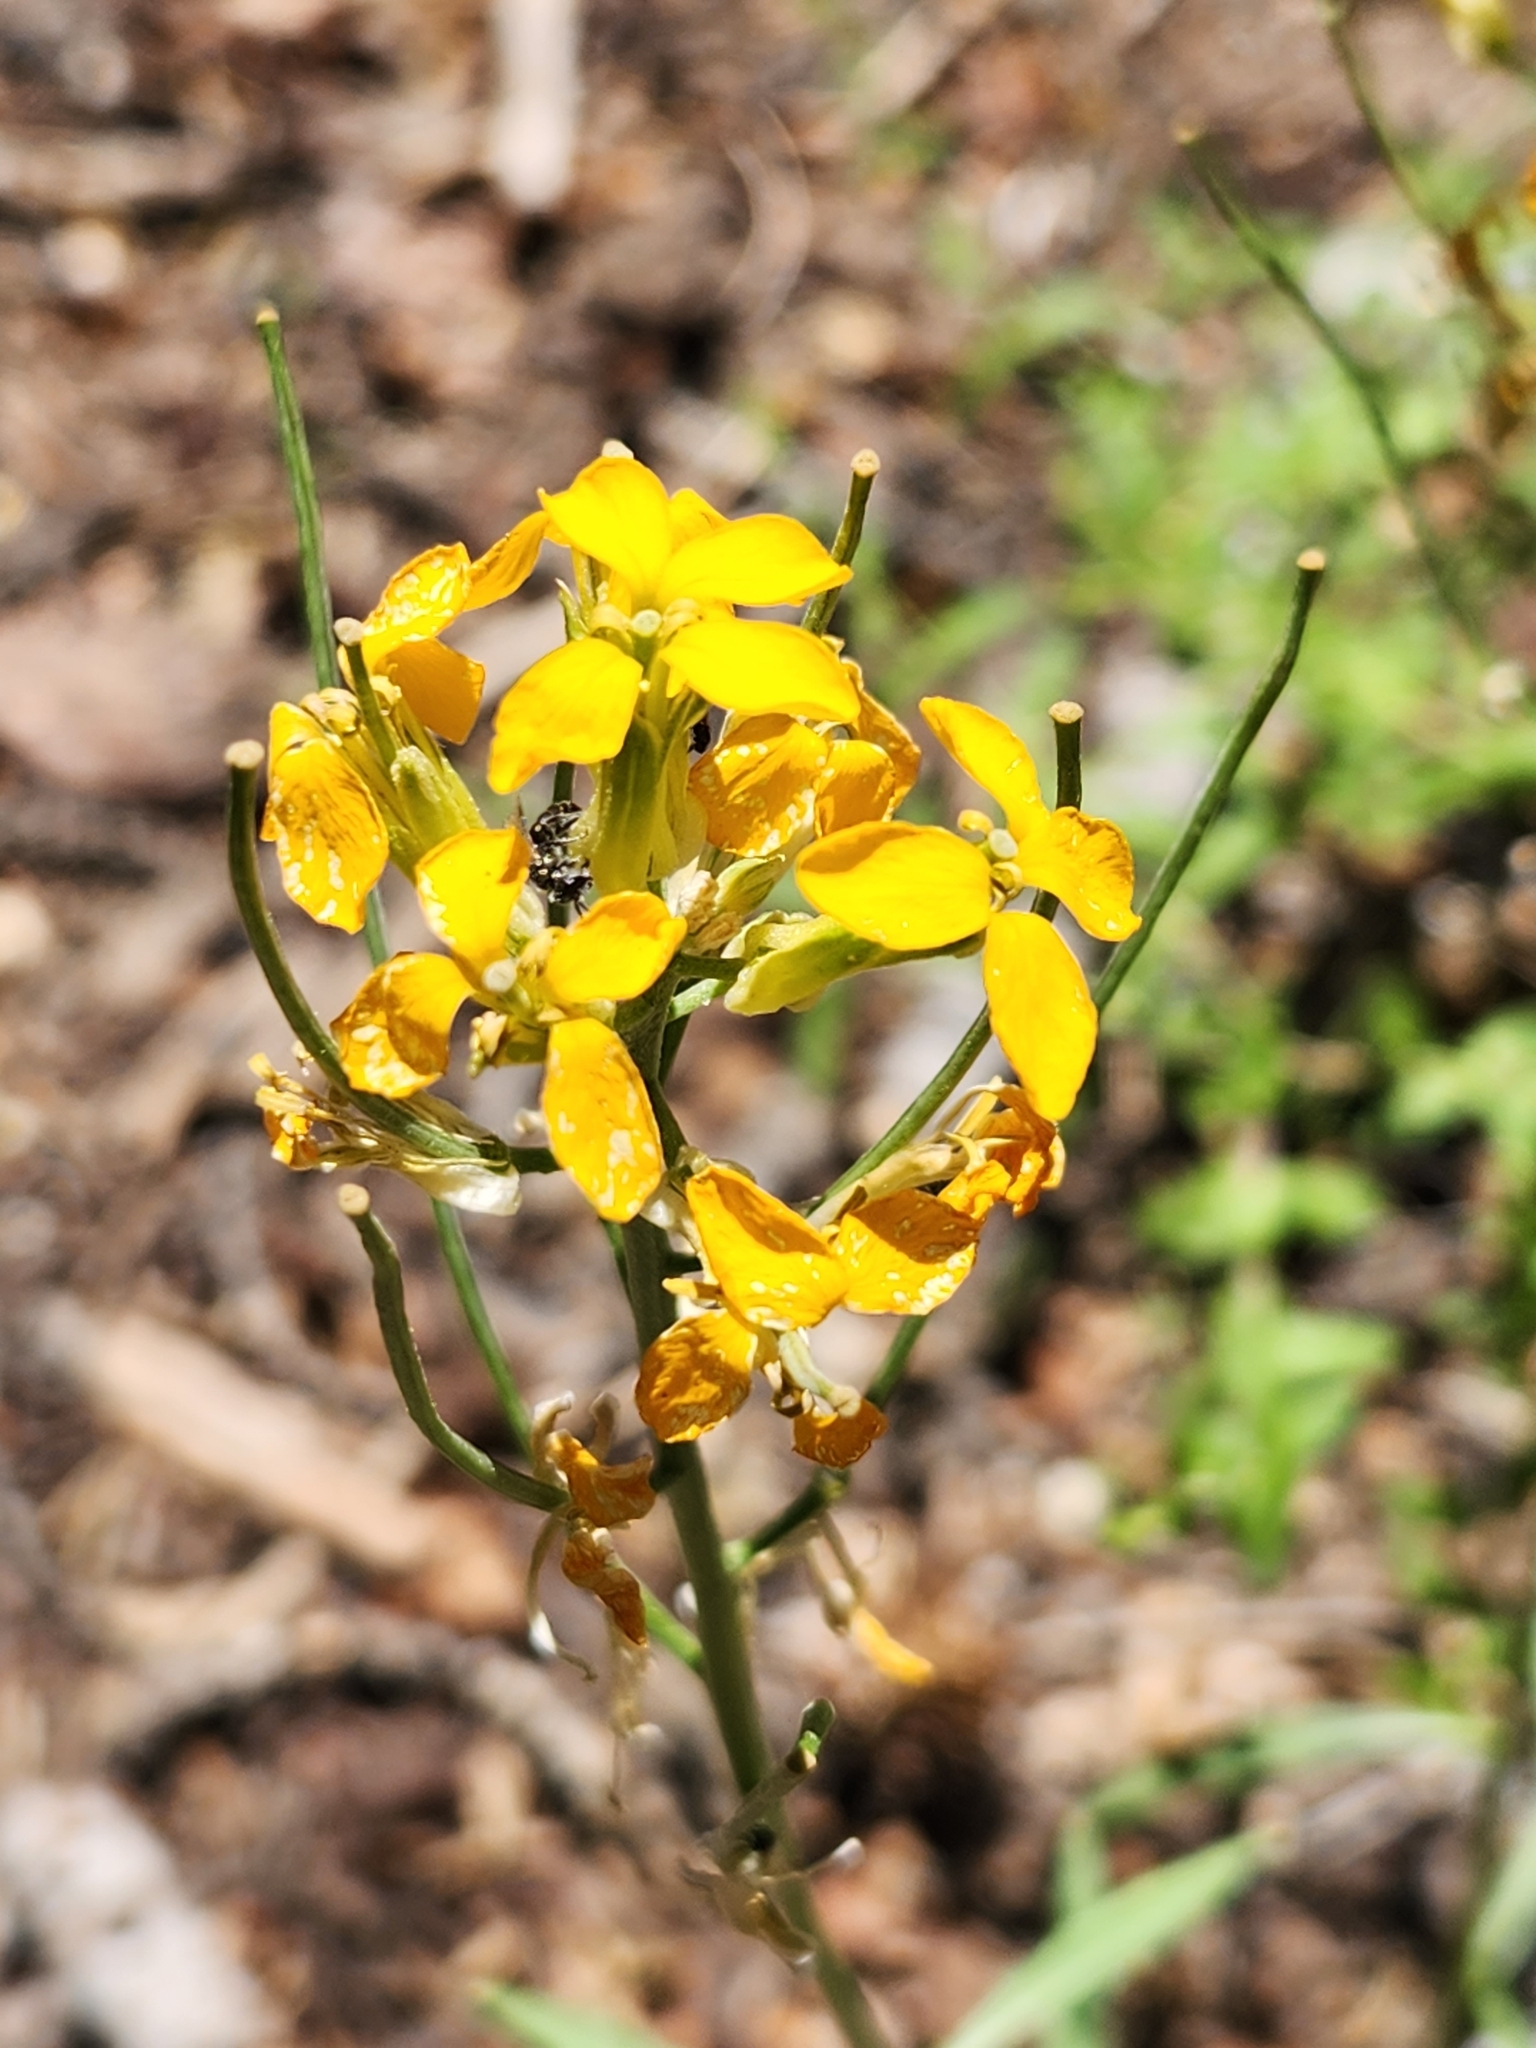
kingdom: Plantae
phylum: Tracheophyta
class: Magnoliopsida
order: Brassicales
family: Brassicaceae
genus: Erysimum
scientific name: Erysimum capitatum
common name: Western wallflower
